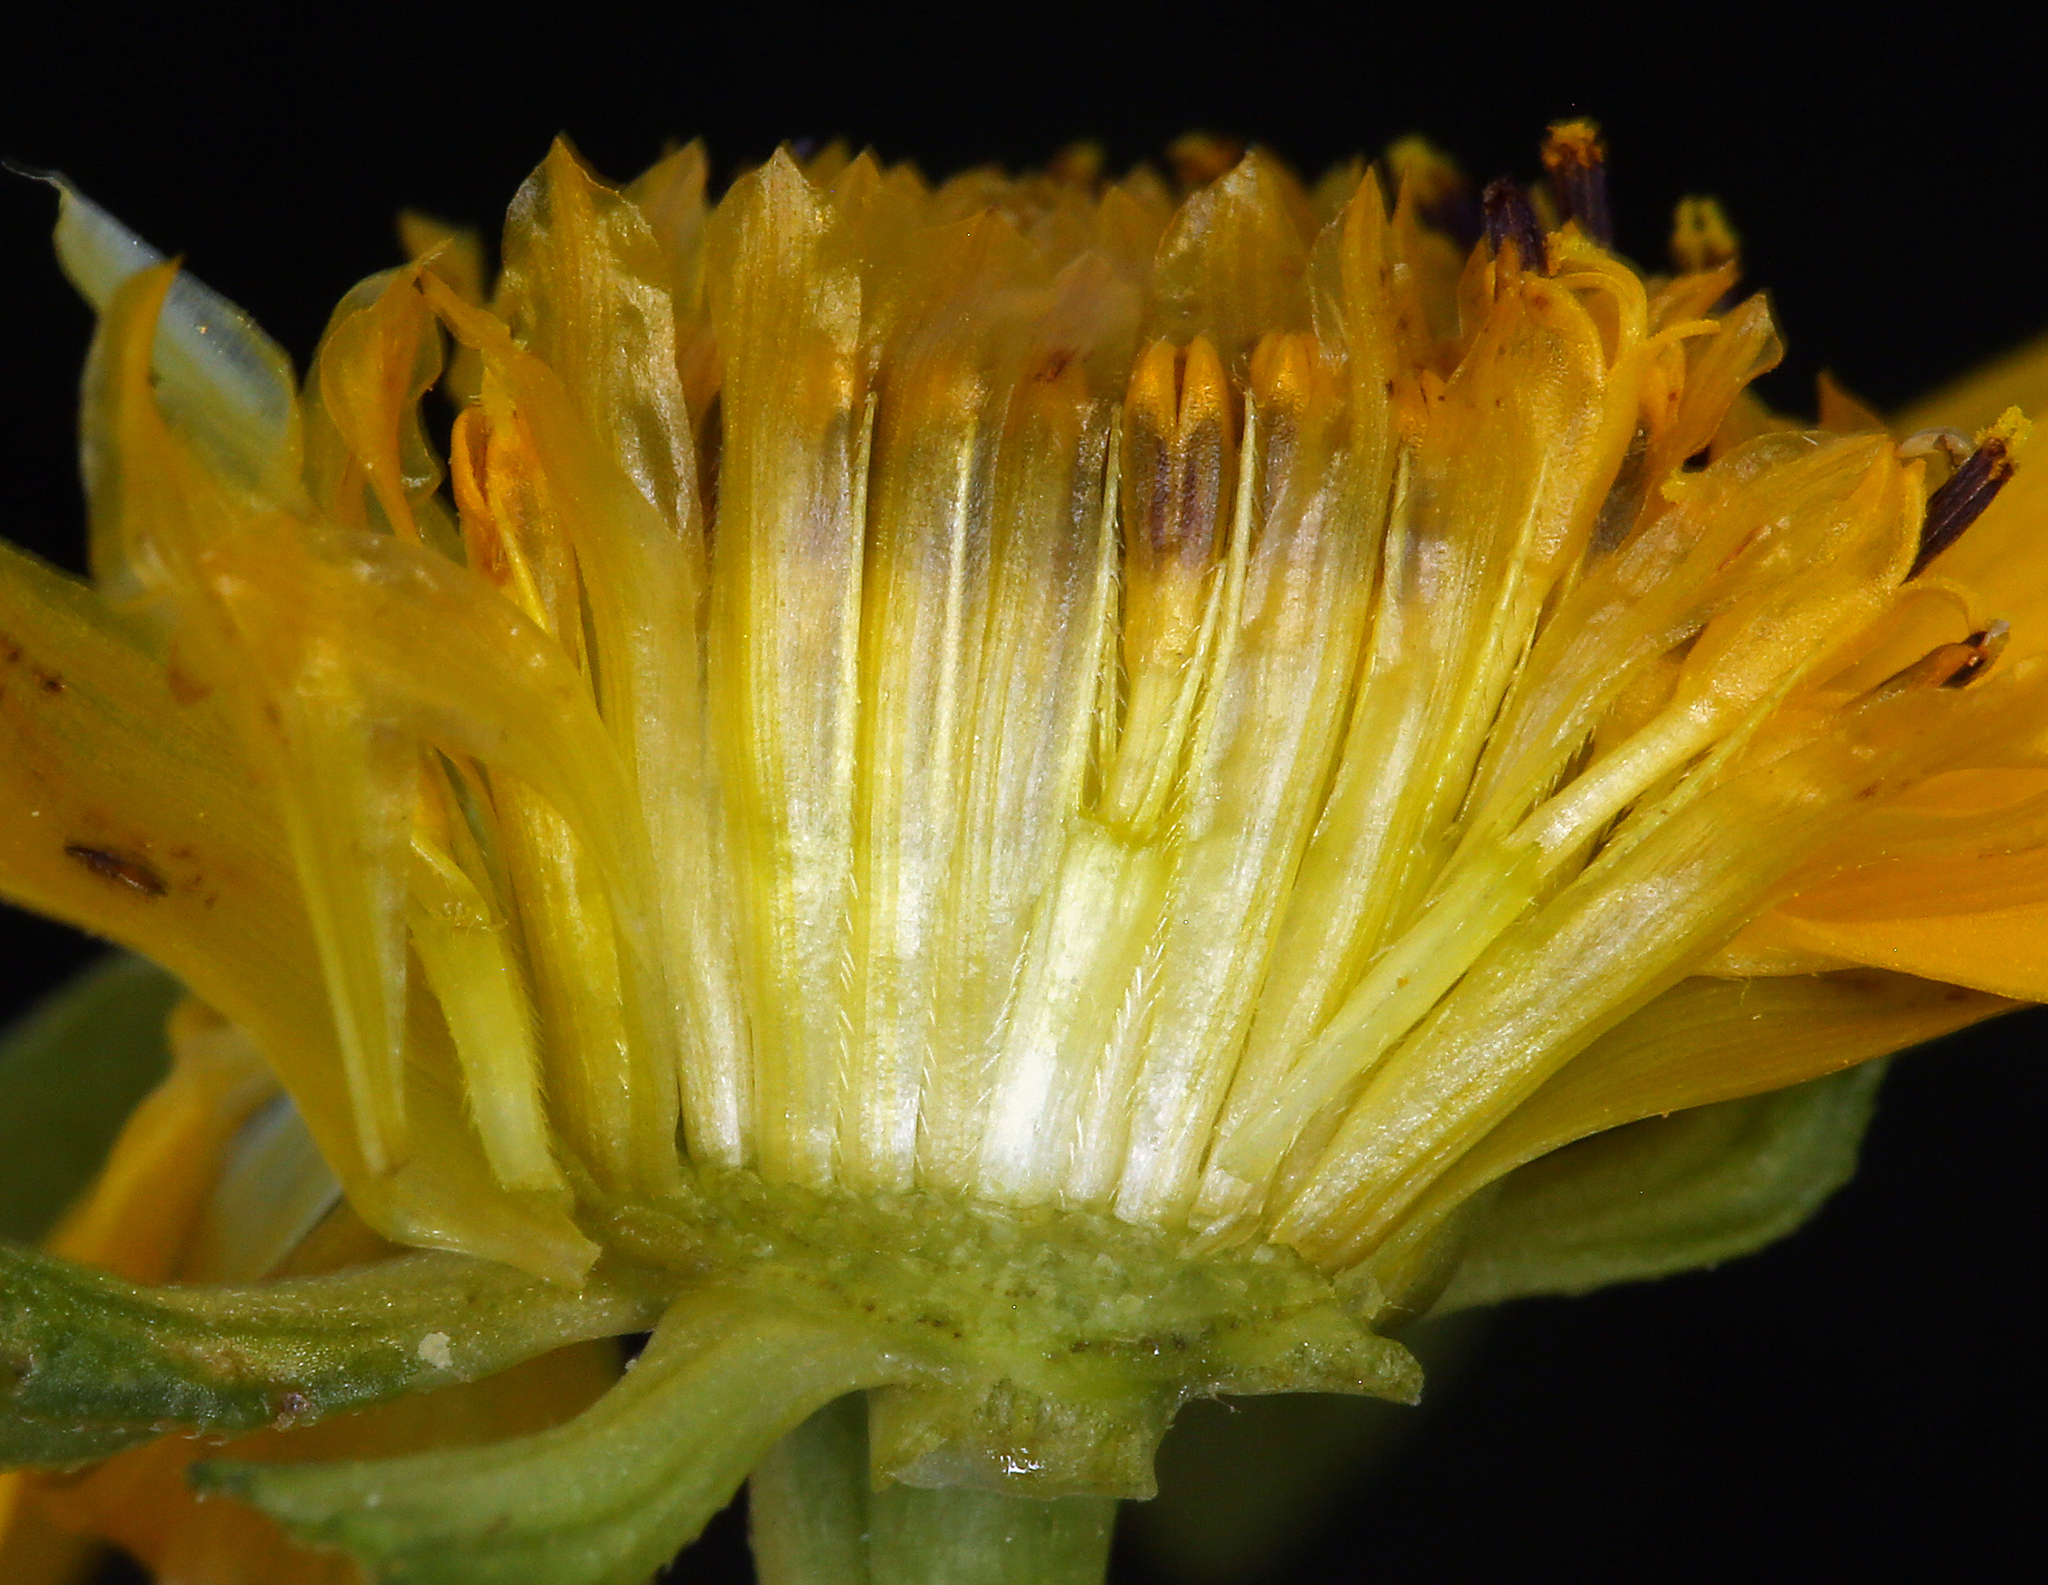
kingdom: Plantae
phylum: Tracheophyta
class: Magnoliopsida
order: Asterales
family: Asteraceae
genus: Bidens
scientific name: Bidens cernua
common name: Nodding bur-marigold
